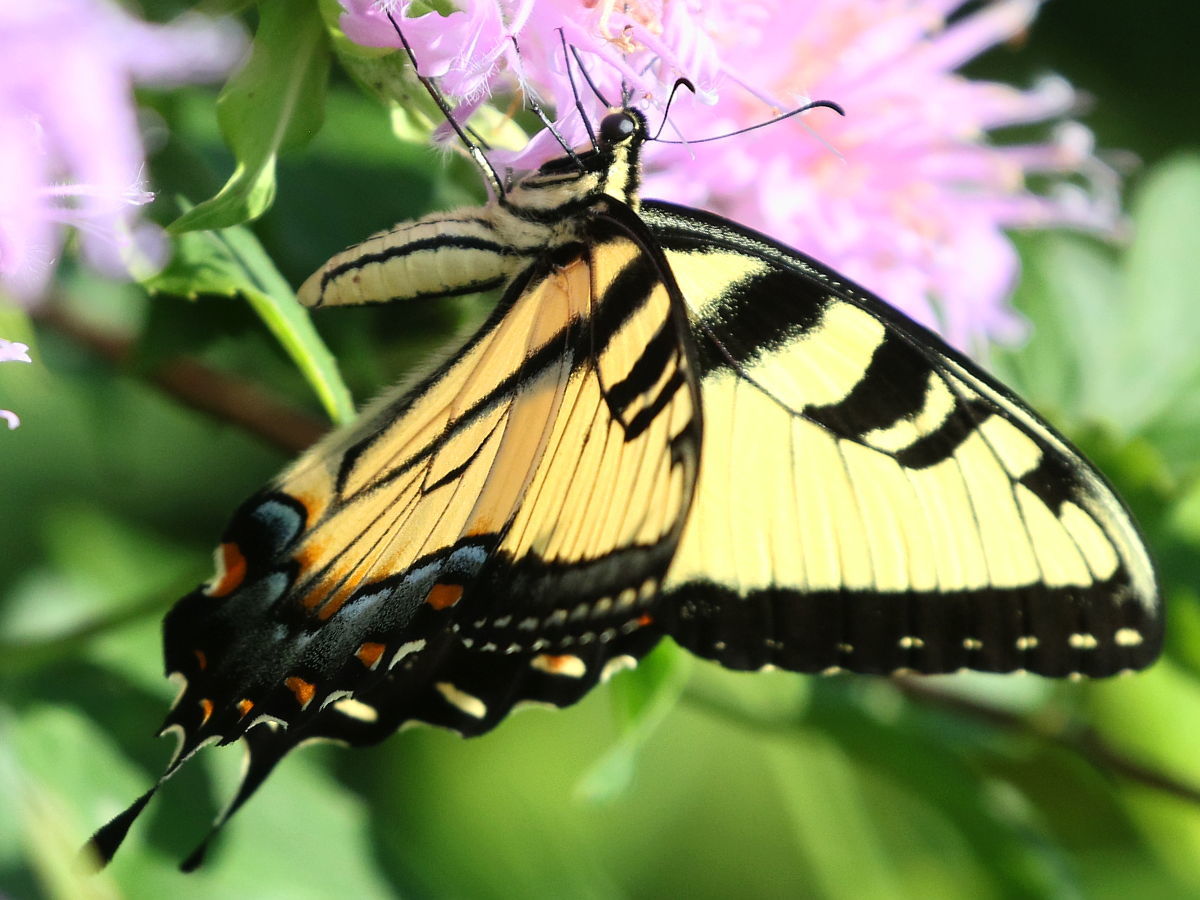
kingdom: Animalia
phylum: Arthropoda
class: Insecta
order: Lepidoptera
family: Papilionidae
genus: Papilio
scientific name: Papilio glaucus
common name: Tiger swallowtail
